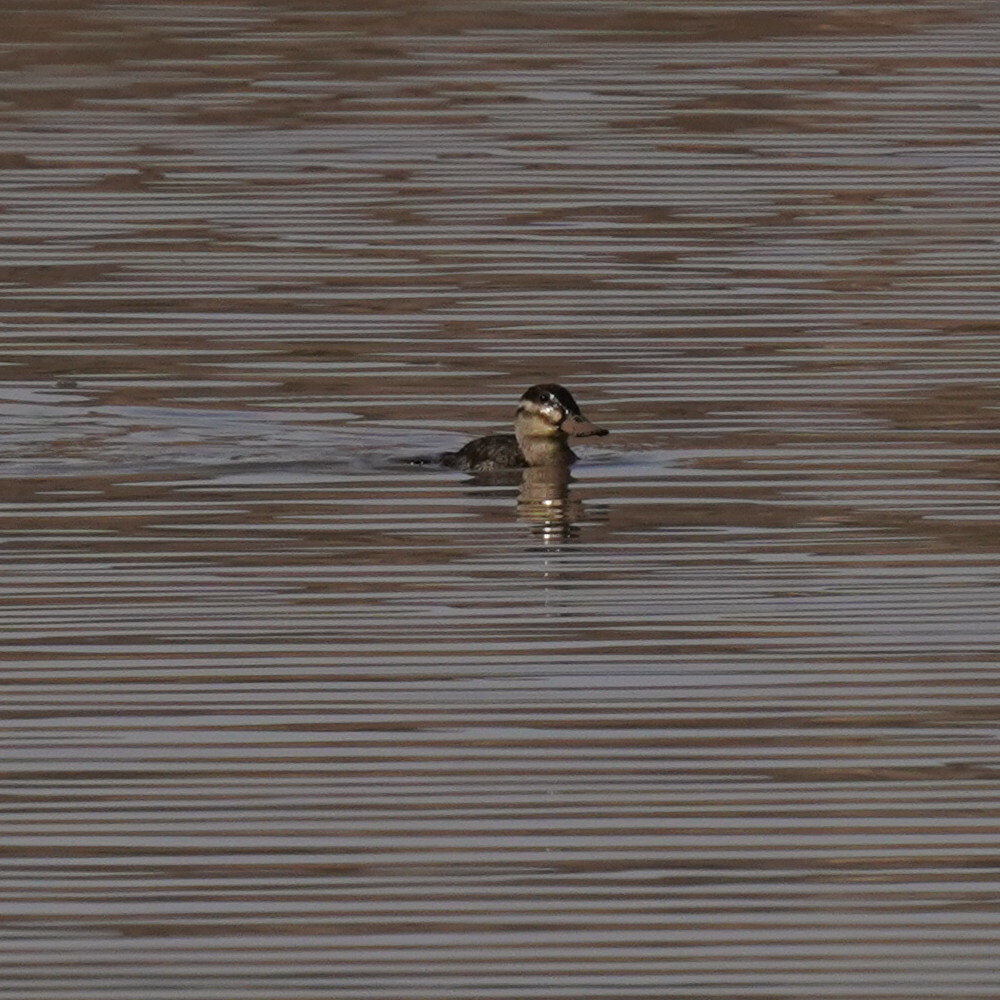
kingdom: Animalia
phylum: Chordata
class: Aves
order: Anseriformes
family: Anatidae
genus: Oxyura
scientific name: Oxyura jamaicensis
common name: Ruddy duck
